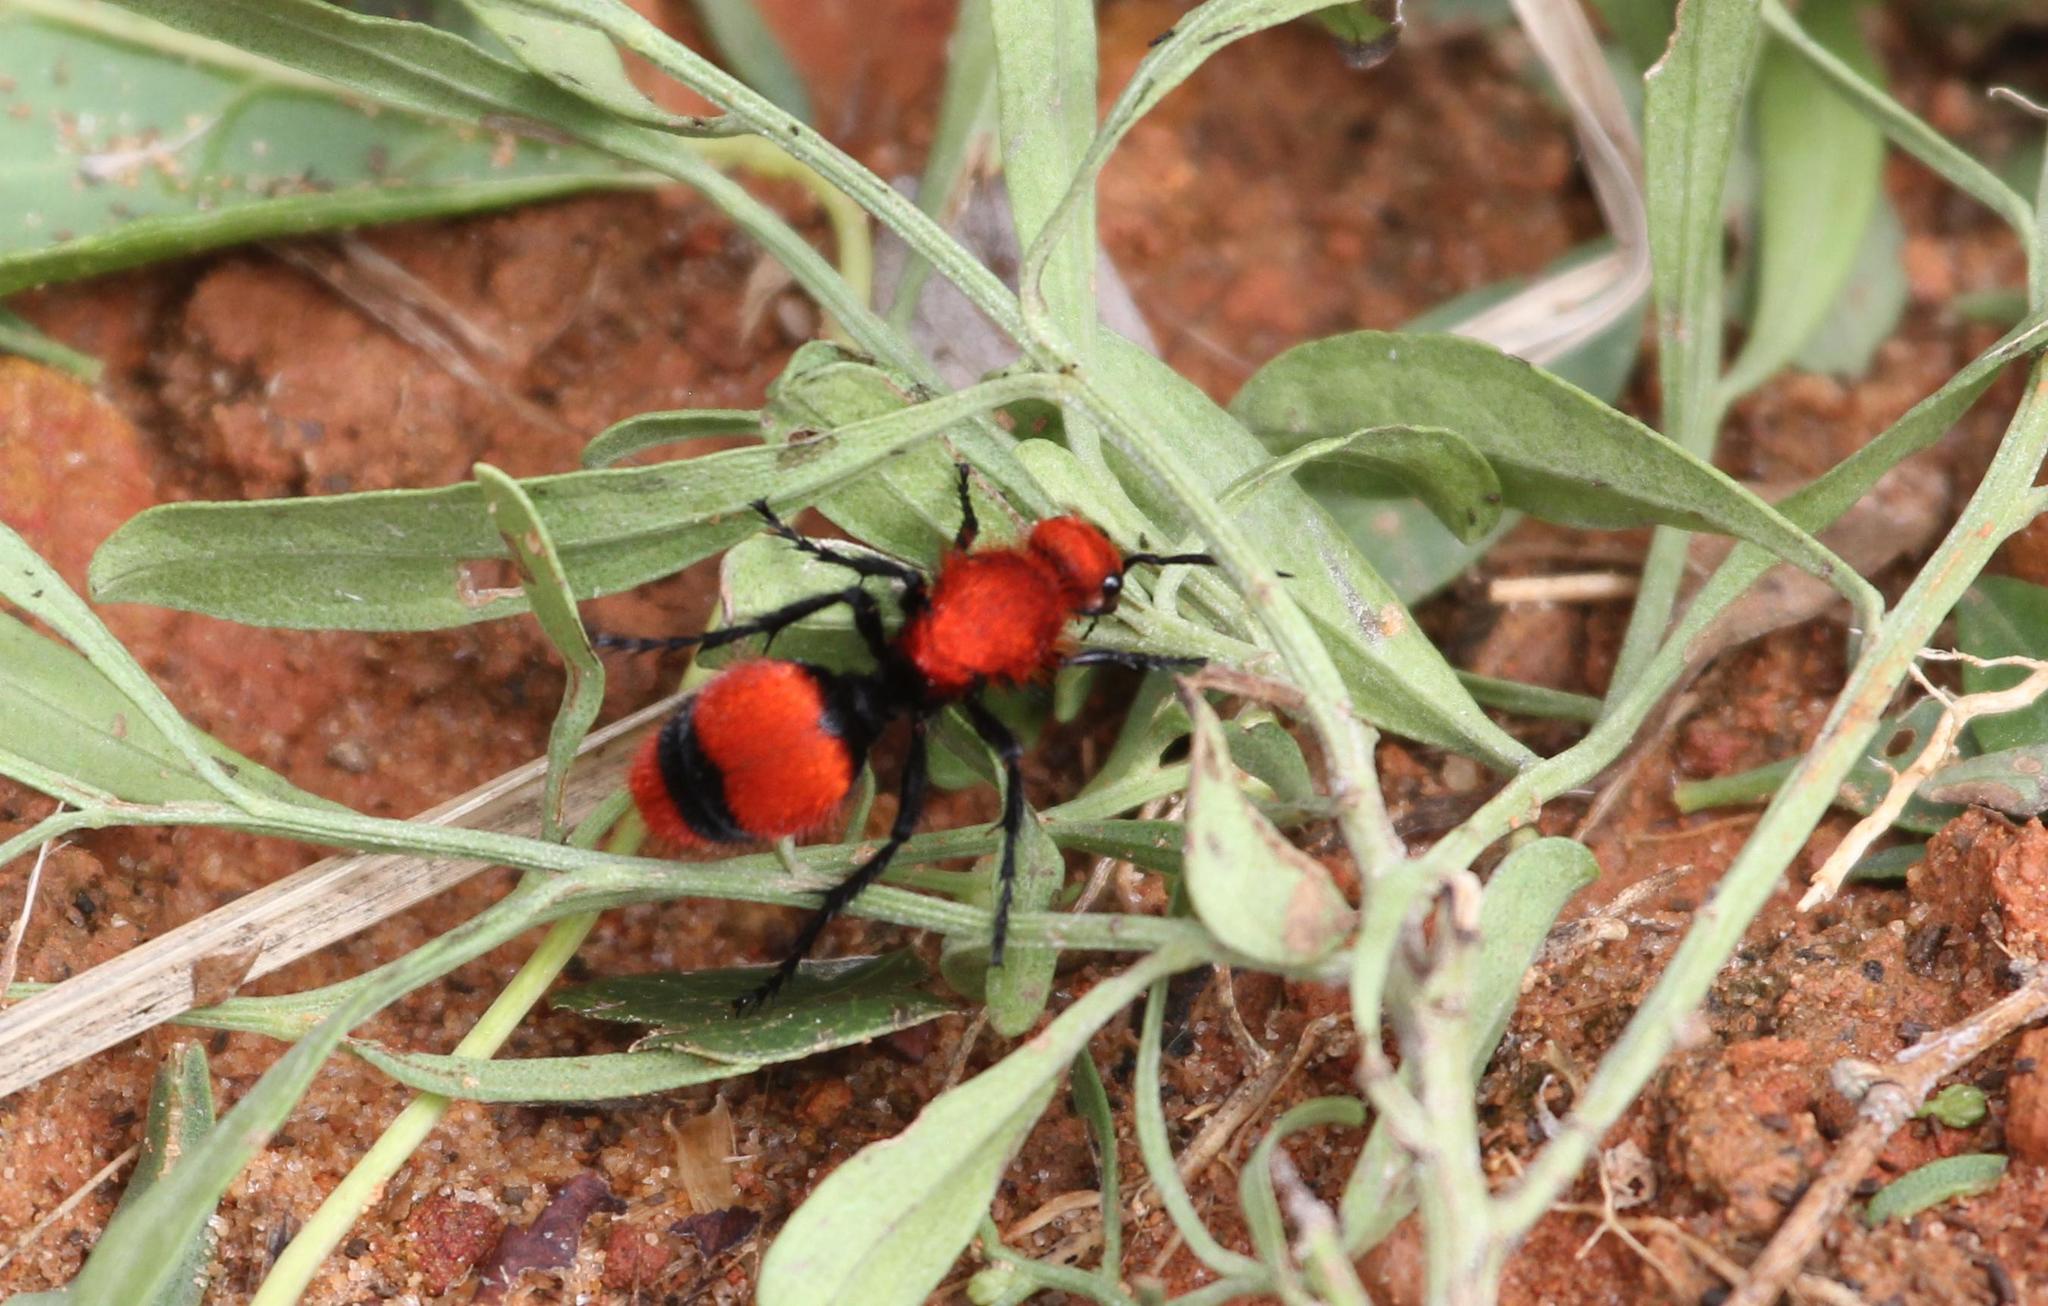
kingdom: Animalia
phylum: Arthropoda
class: Insecta
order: Hymenoptera
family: Mutillidae
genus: Dasymutilla
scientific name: Dasymutilla occidentalis
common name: Common eastern velvet ant
